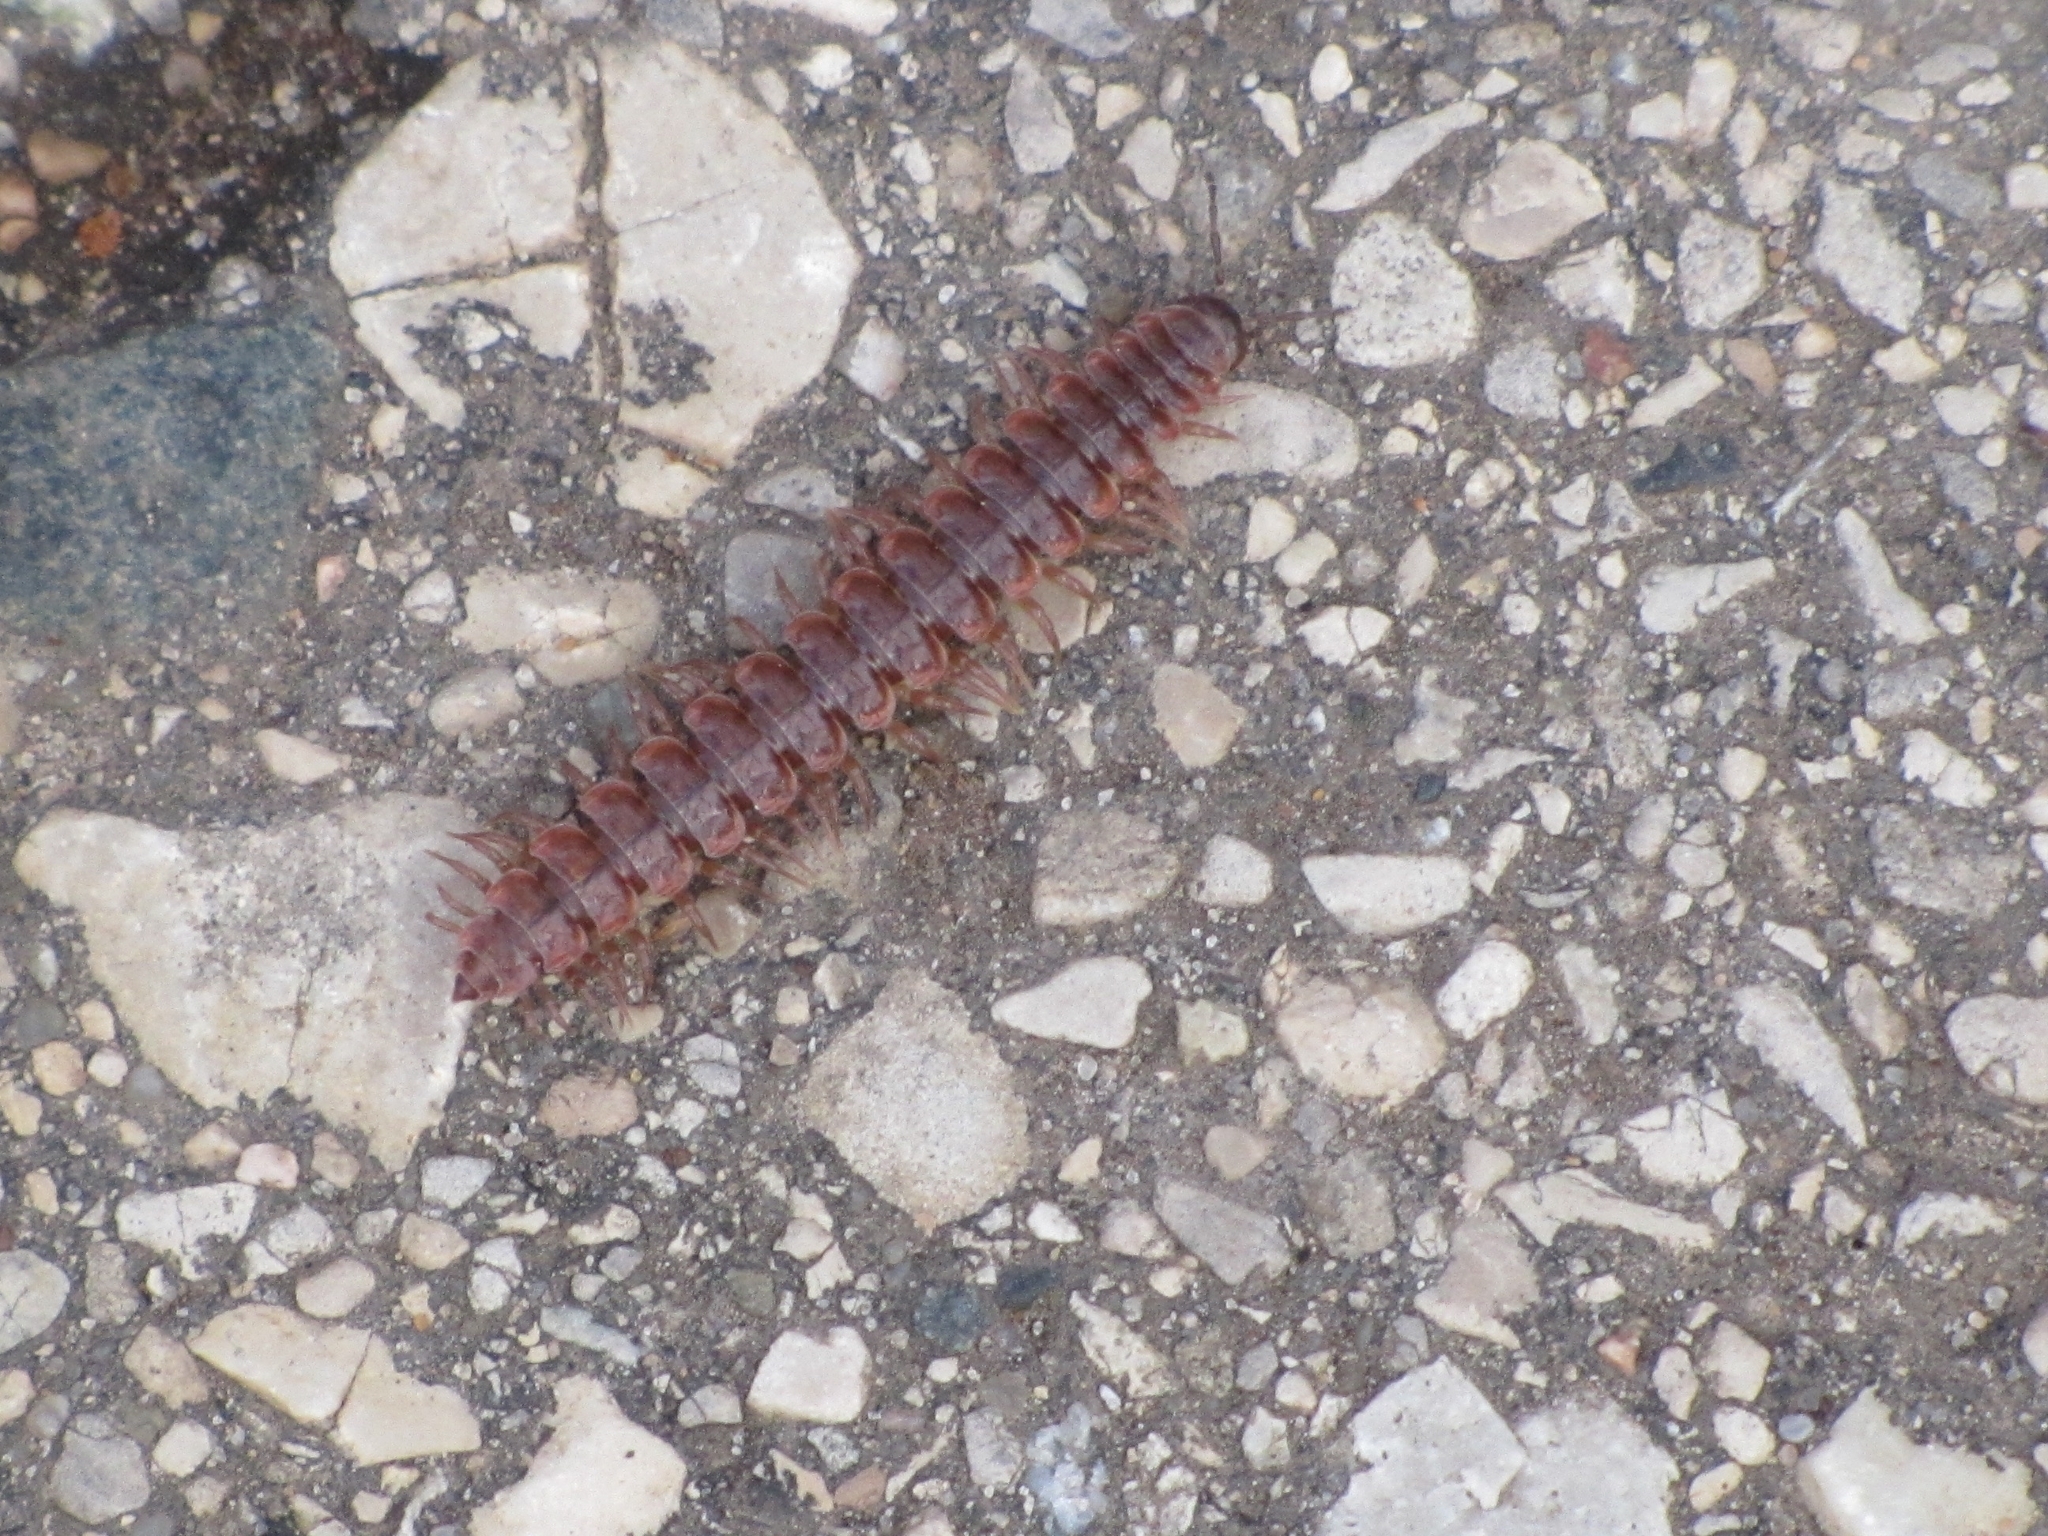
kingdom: Animalia
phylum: Arthropoda
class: Diplopoda
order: Polydesmida
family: Polydesmidae
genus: Pseudopolydesmus
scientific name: Pseudopolydesmus serratus
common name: Common pink flat-back millipede
